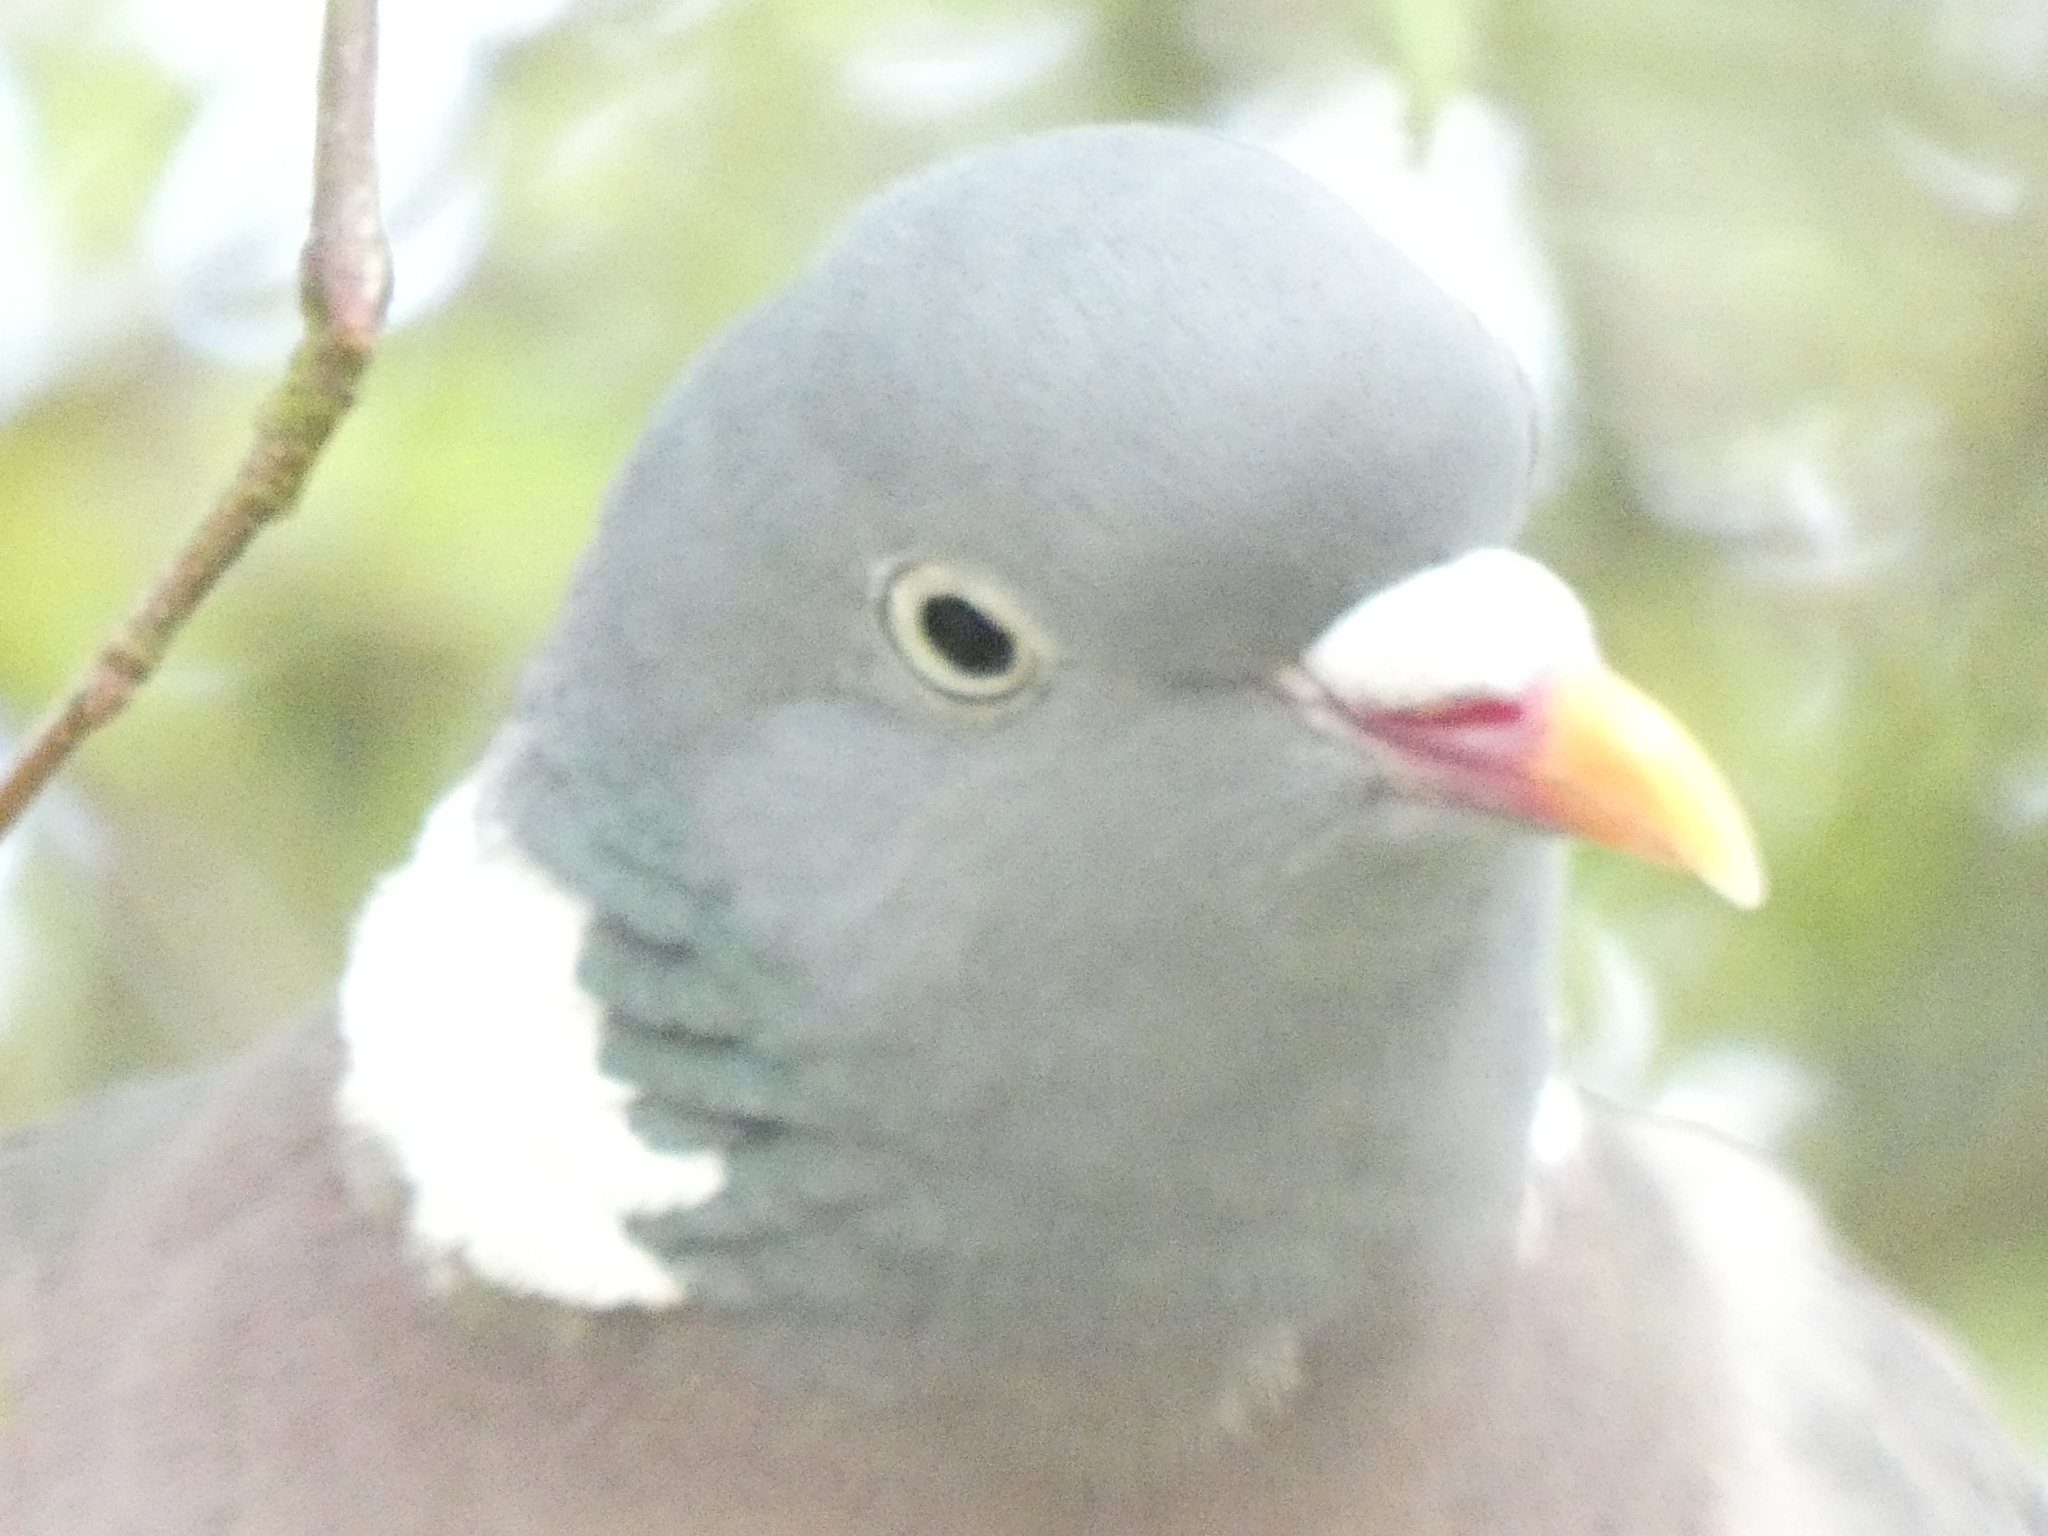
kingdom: Animalia
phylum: Chordata
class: Aves
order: Columbiformes
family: Columbidae
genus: Columba
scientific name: Columba palumbus
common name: Common wood pigeon
